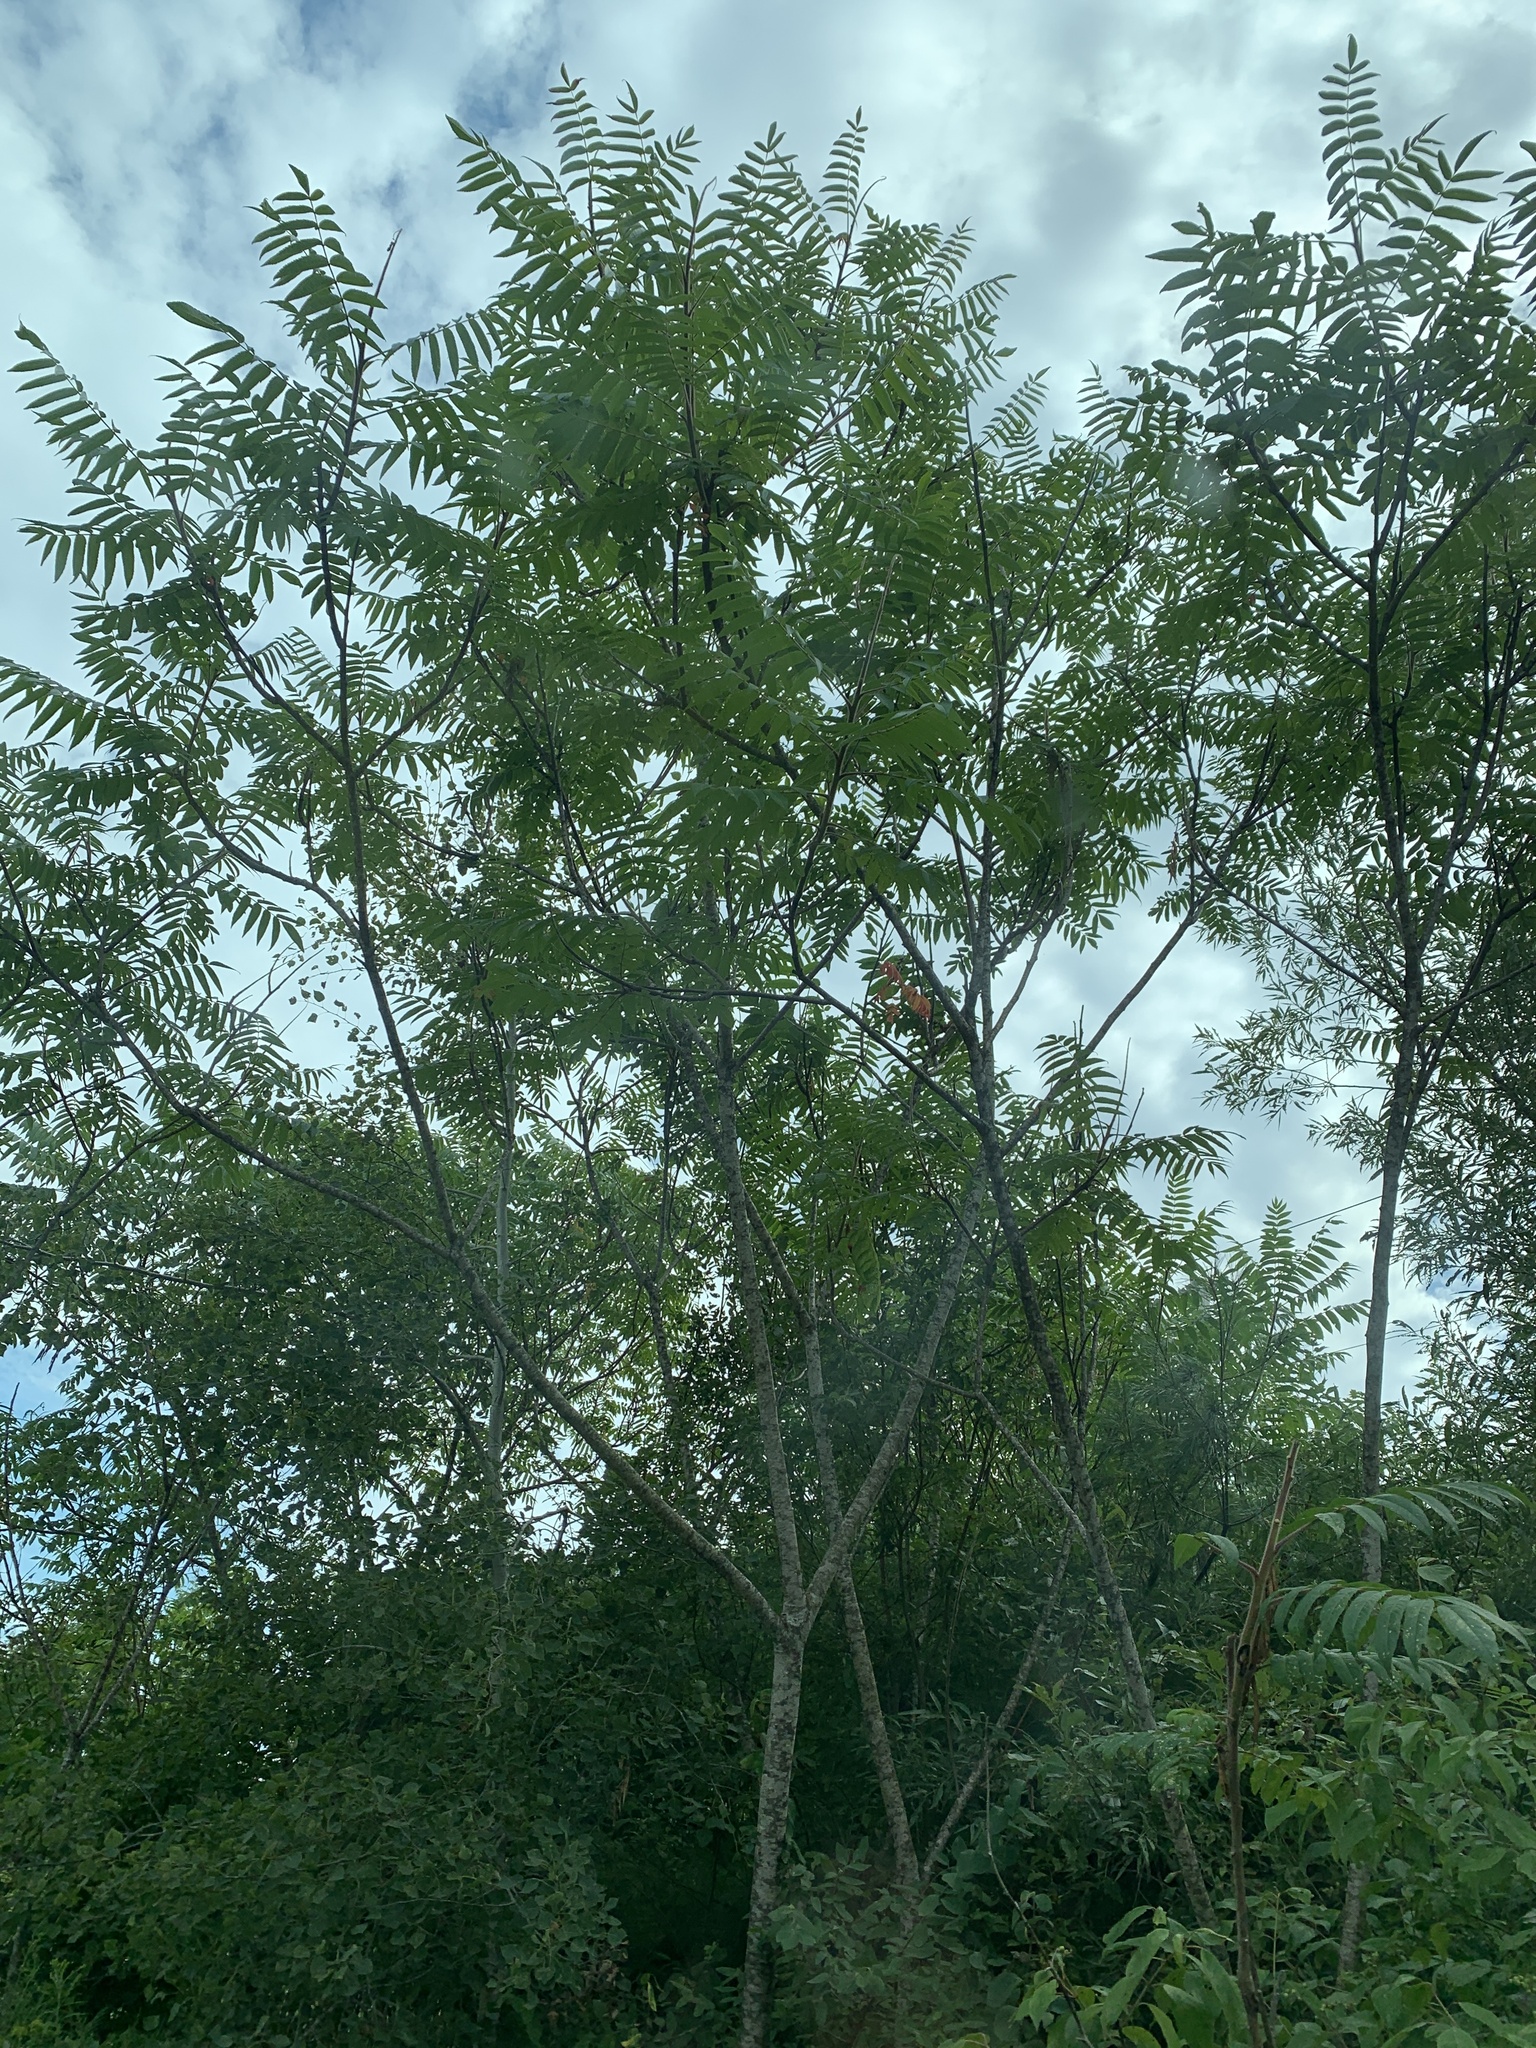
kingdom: Plantae
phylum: Tracheophyta
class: Magnoliopsida
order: Sapindales
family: Anacardiaceae
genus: Rhus
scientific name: Rhus typhina
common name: Staghorn sumac
